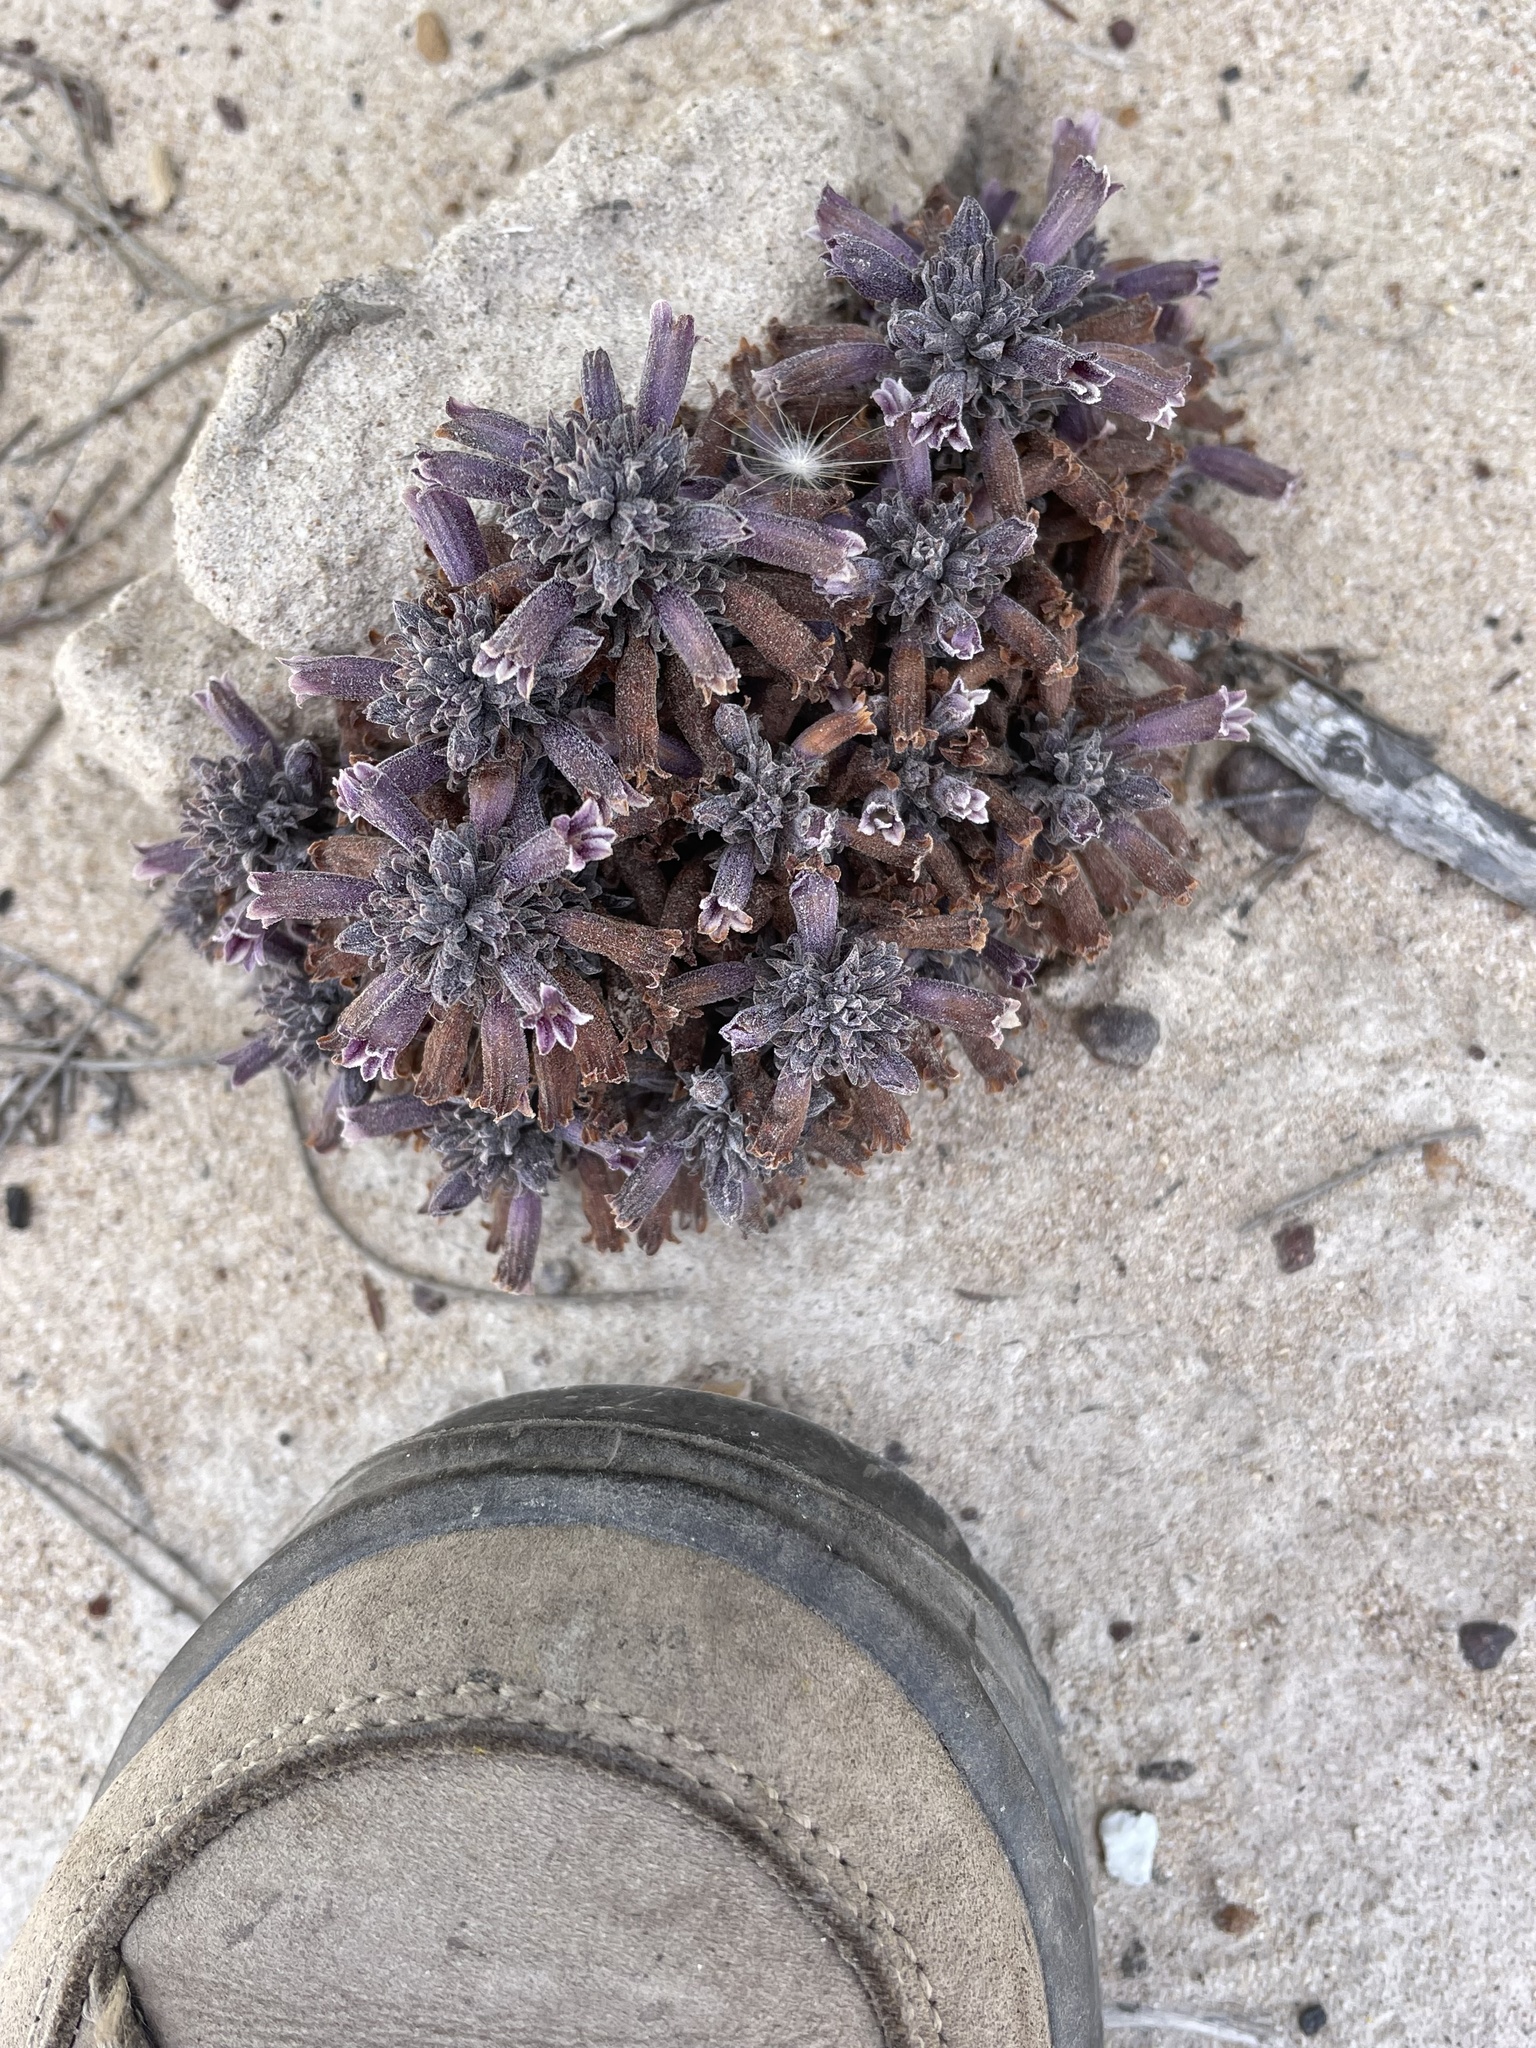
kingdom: Plantae
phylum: Tracheophyta
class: Magnoliopsida
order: Lamiales
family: Orobanchaceae
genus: Aphyllon
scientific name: Aphyllon tuberosum
